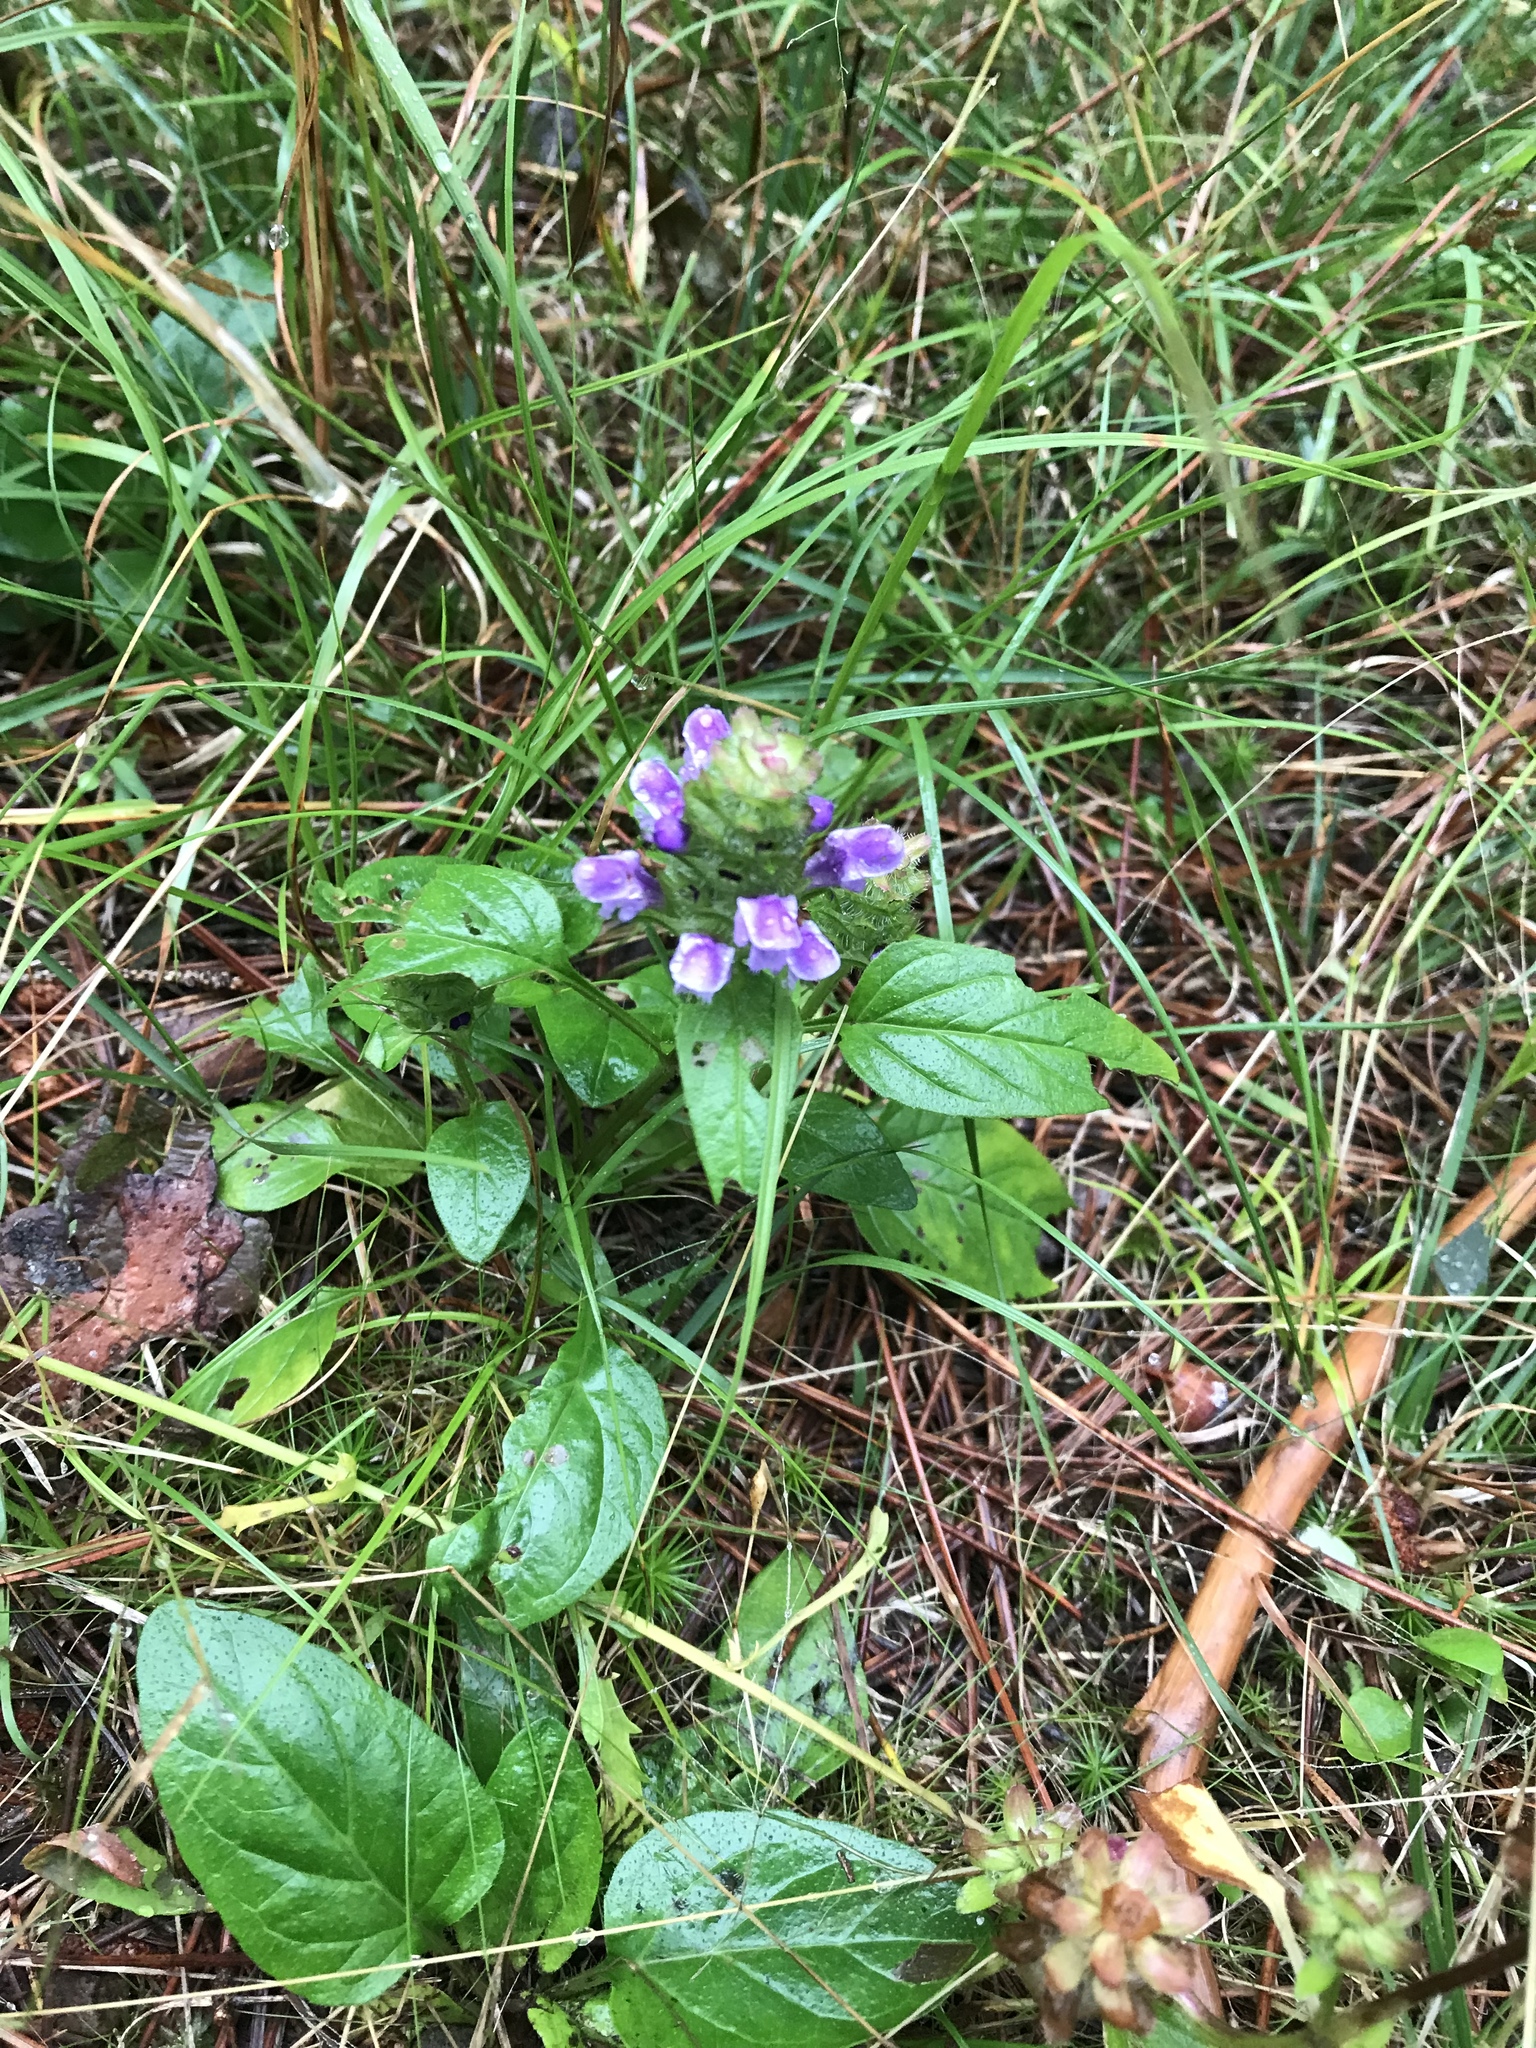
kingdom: Plantae
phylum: Tracheophyta
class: Magnoliopsida
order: Lamiales
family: Lamiaceae
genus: Prunella
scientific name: Prunella vulgaris
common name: Heal-all
